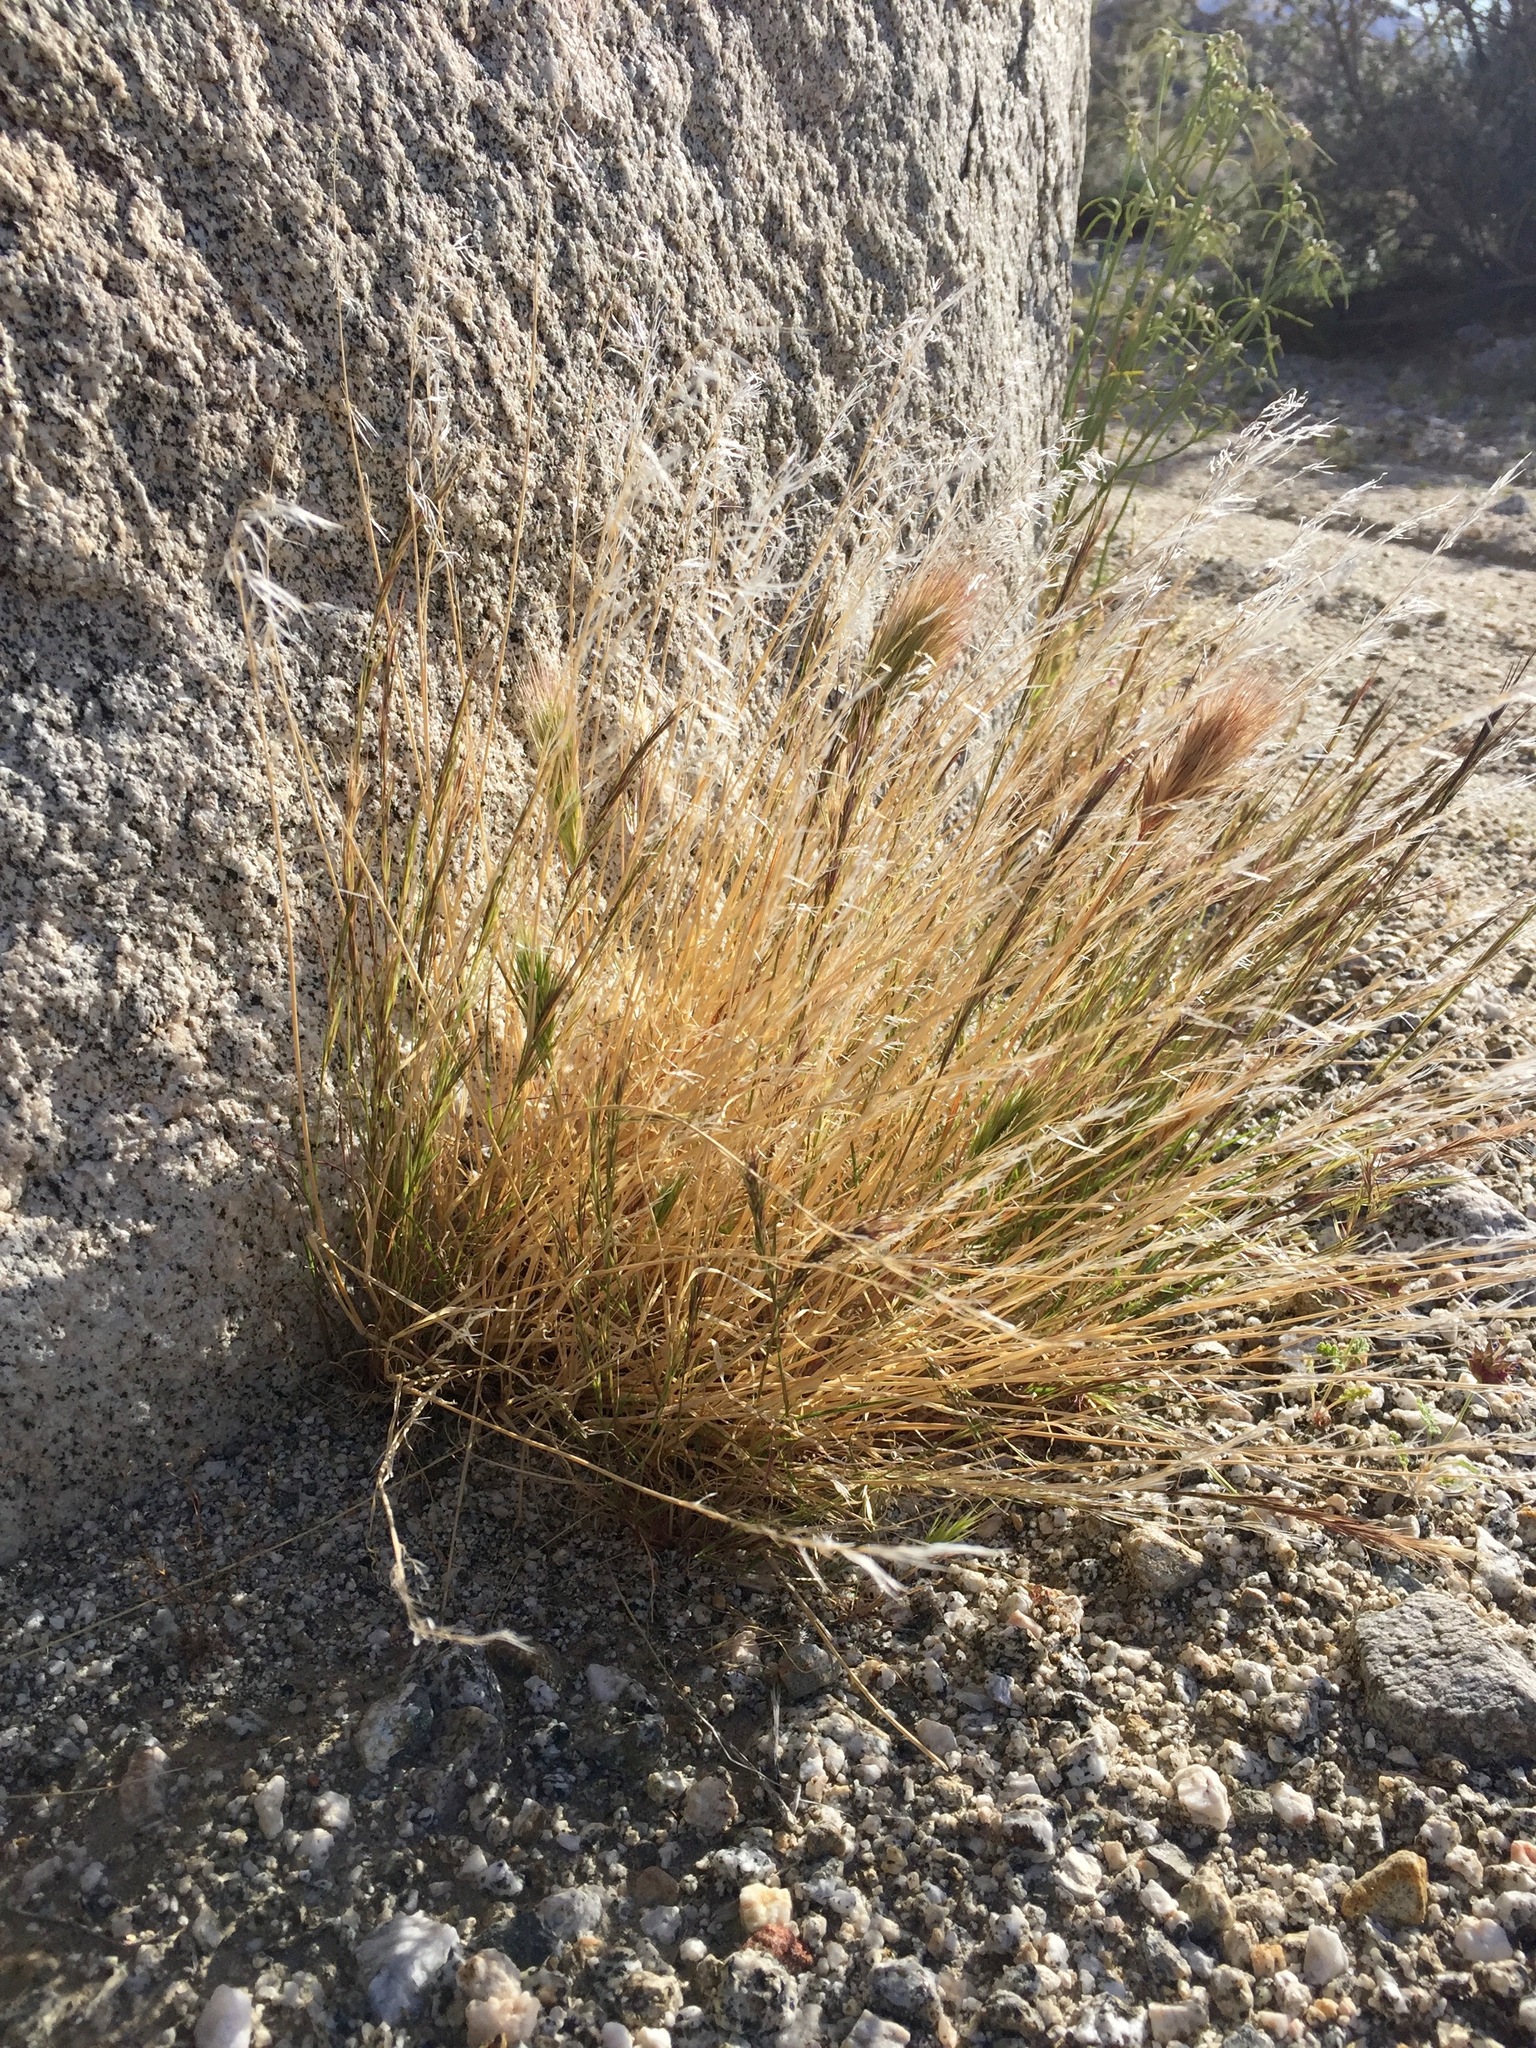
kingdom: Plantae
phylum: Tracheophyta
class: Liliopsida
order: Poales
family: Poaceae
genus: Aristida
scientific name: Aristida adscensionis
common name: Sixweeks threeawn
